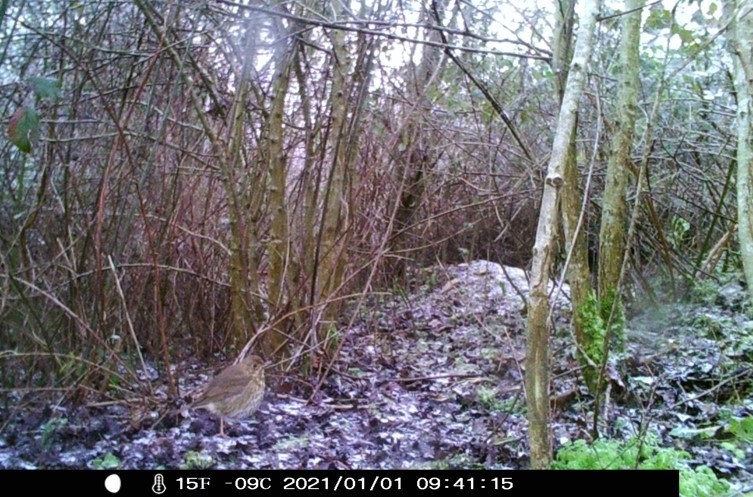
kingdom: Animalia
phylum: Chordata
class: Aves
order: Passeriformes
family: Turdidae
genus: Turdus
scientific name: Turdus philomelos
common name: Song thrush
